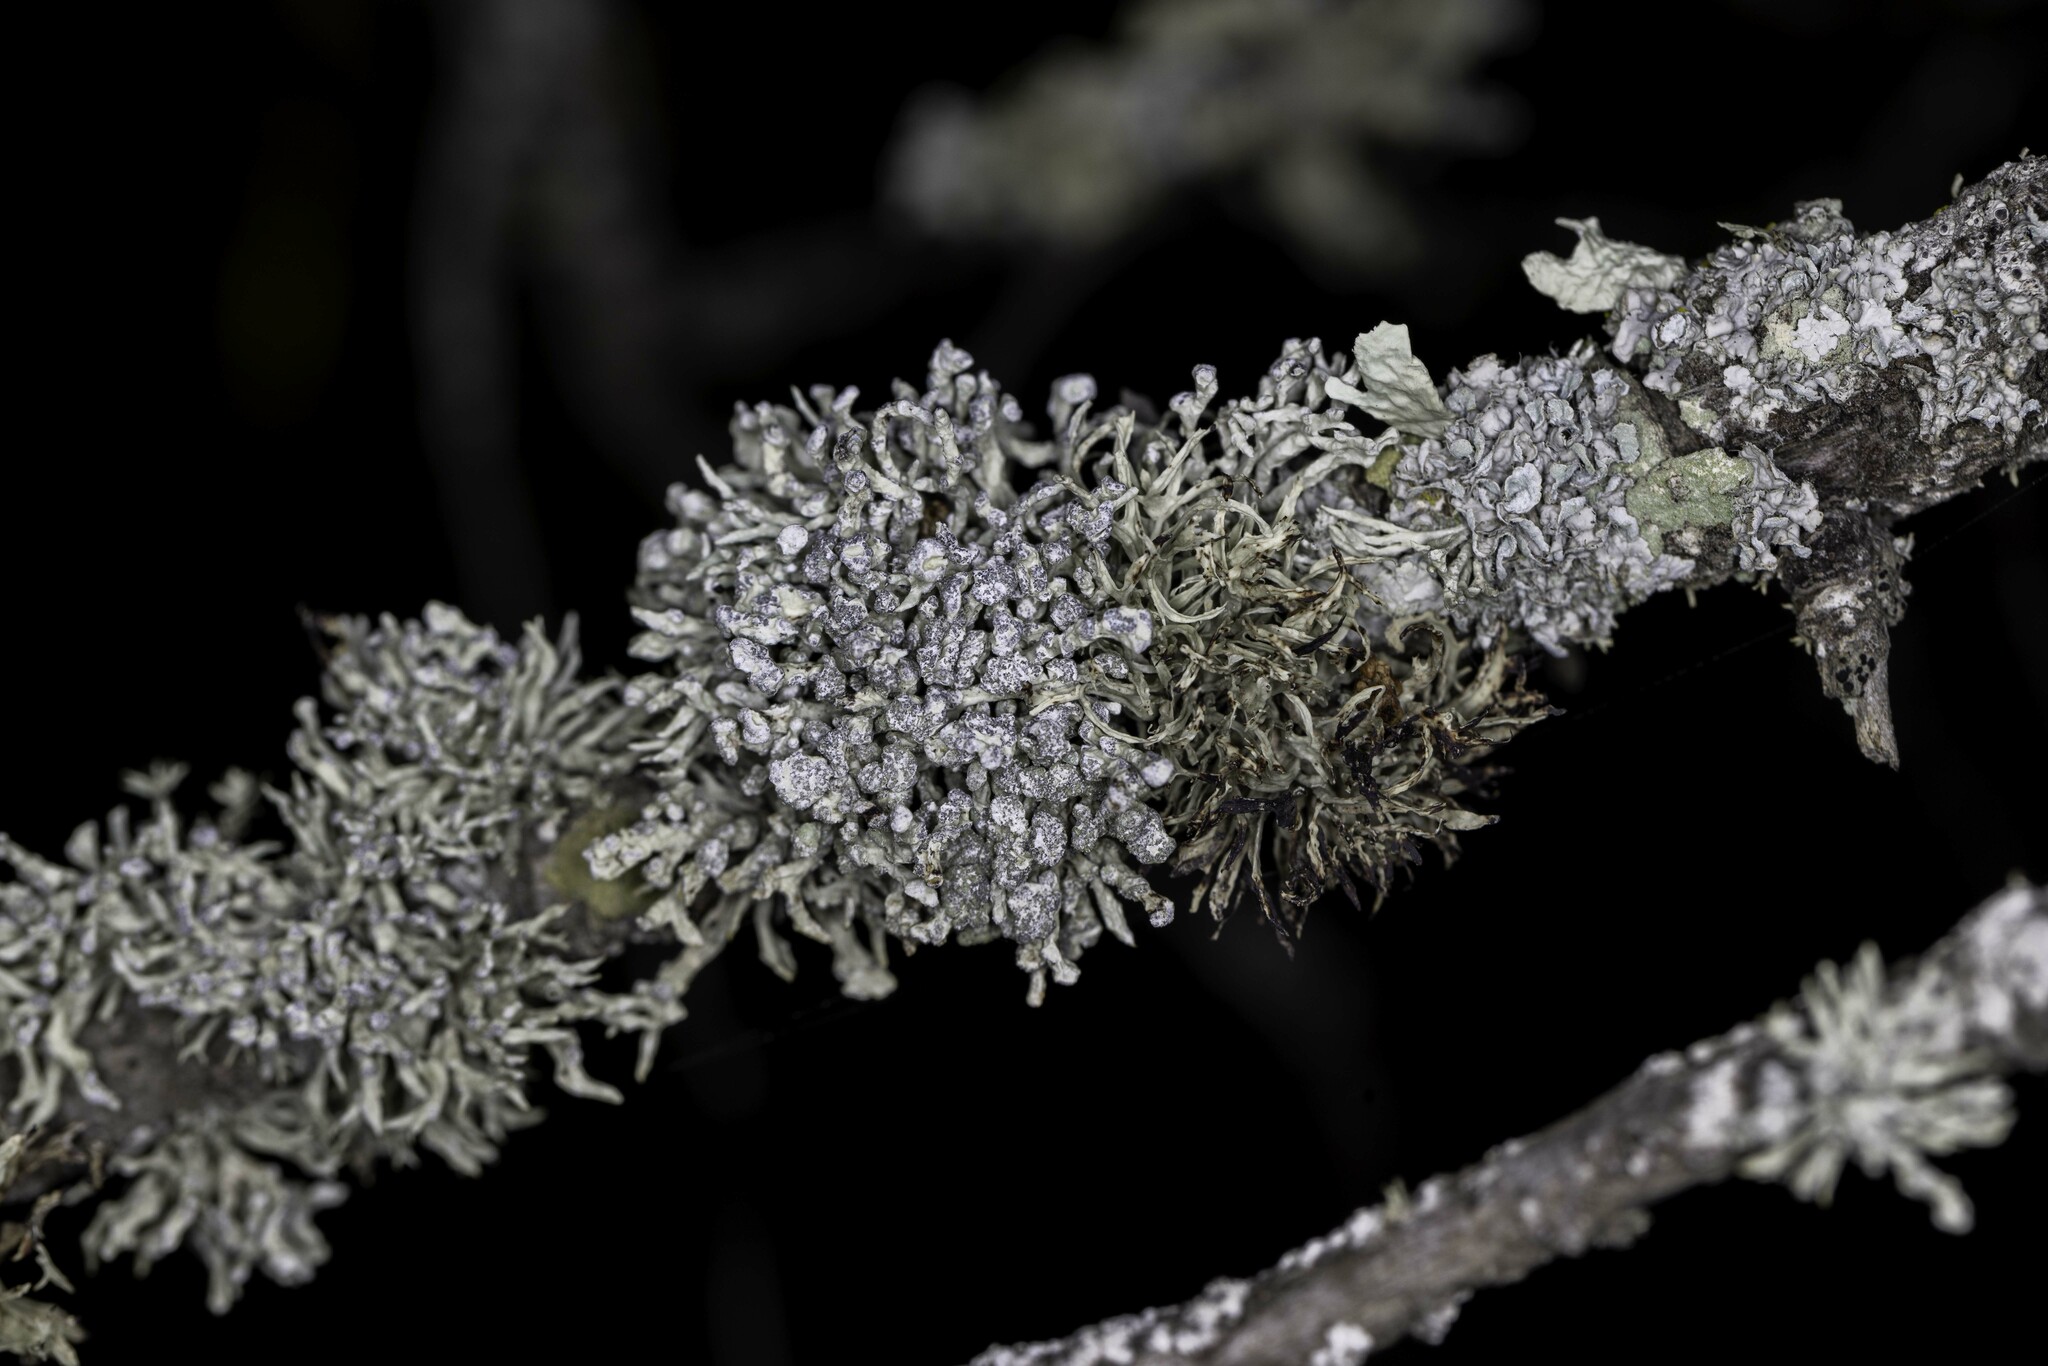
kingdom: Fungi
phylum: Ascomycota
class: Lecanoromycetes
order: Lecanorales
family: Ramalinaceae
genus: Niebla
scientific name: Niebla cephalota
